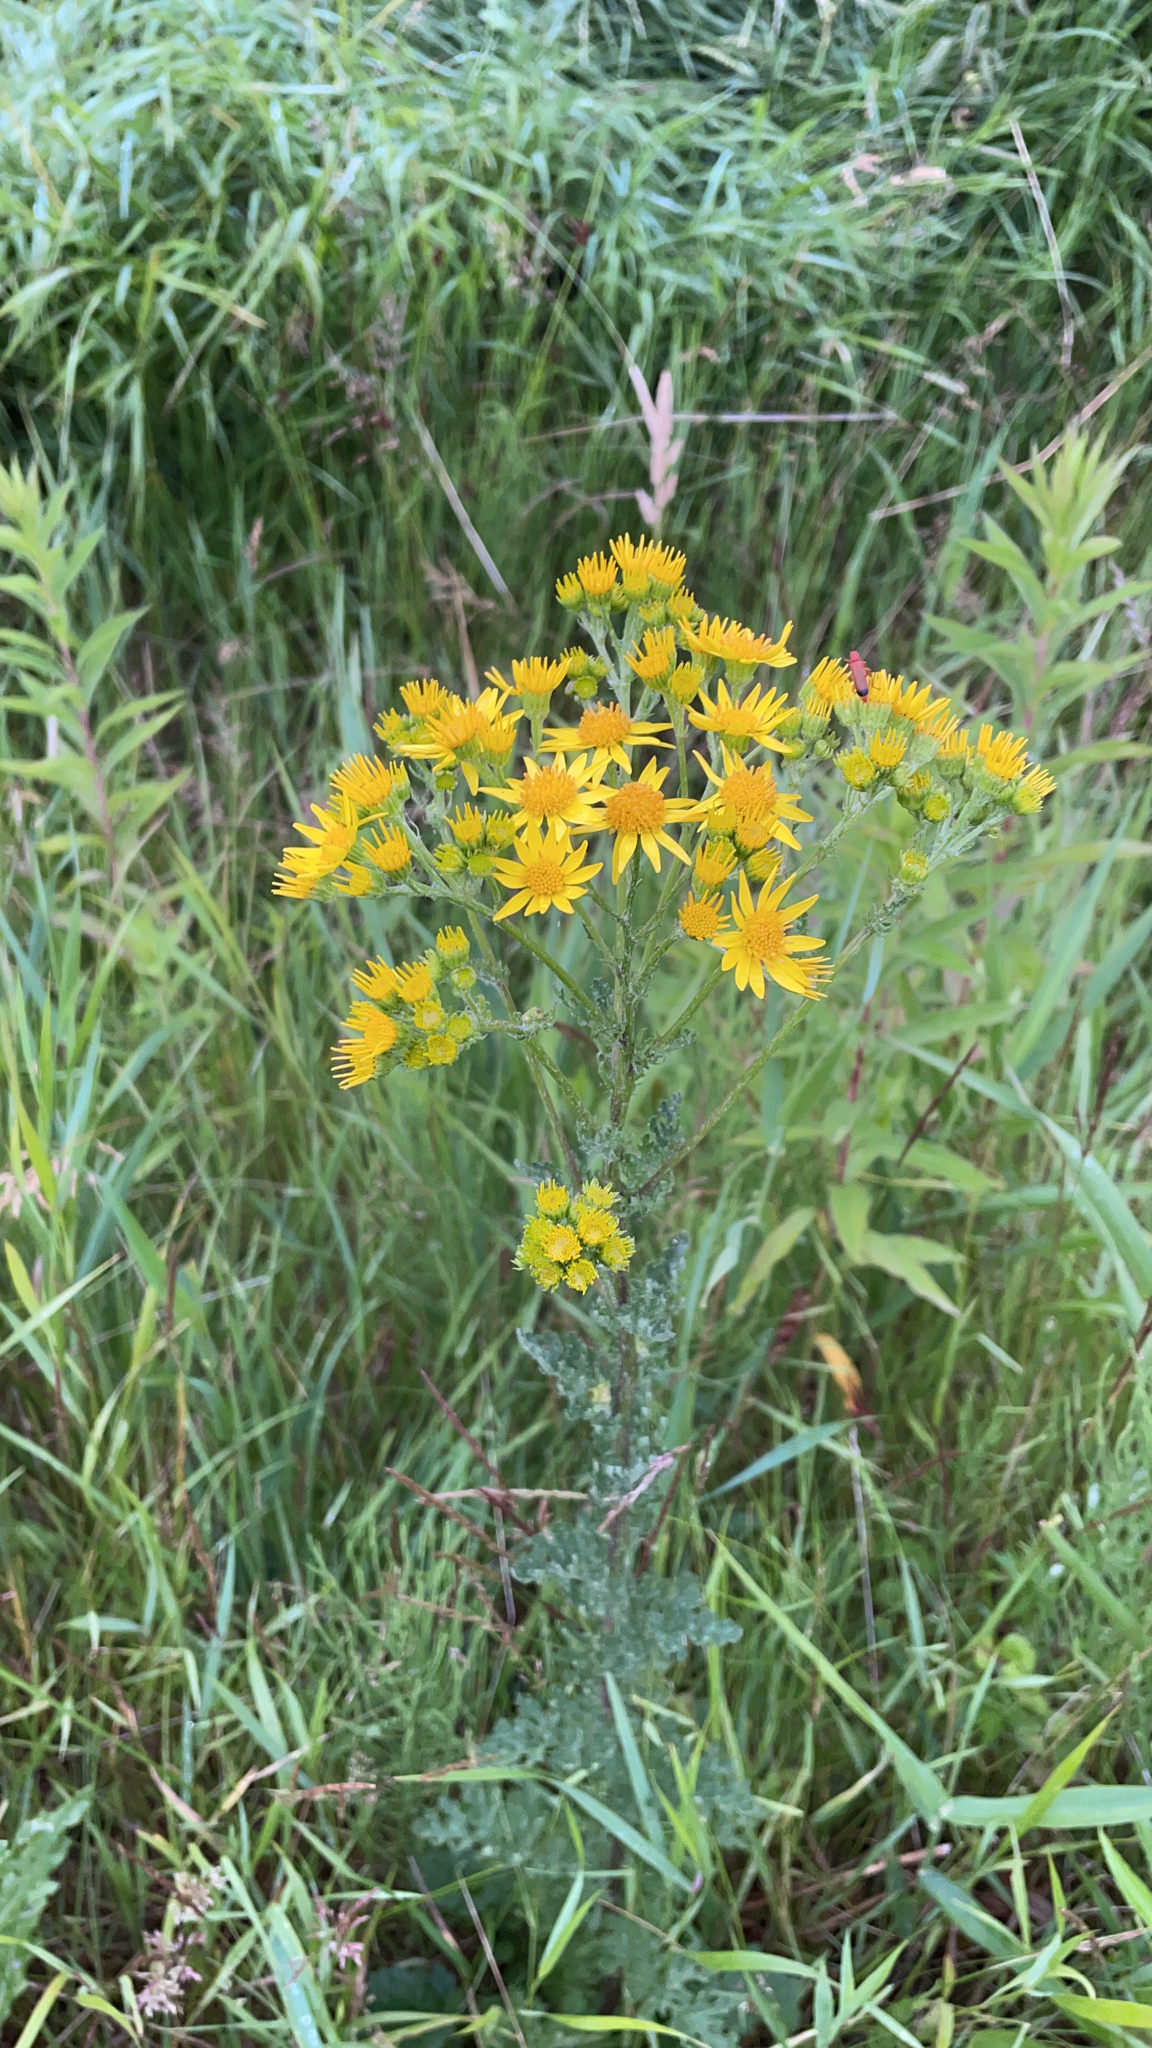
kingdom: Plantae
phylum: Tracheophyta
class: Magnoliopsida
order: Asterales
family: Asteraceae
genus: Jacobaea
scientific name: Jacobaea vulgaris
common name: Stinking willie
